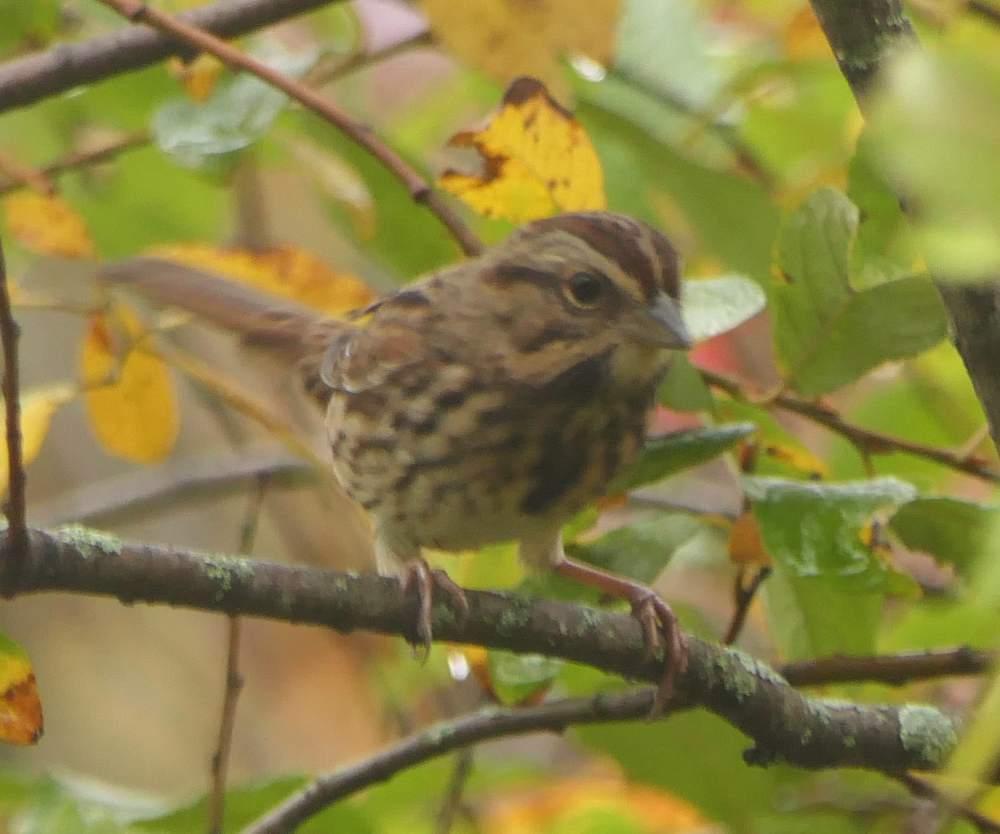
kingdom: Animalia
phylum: Chordata
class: Aves
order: Passeriformes
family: Passerellidae
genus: Melospiza
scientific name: Melospiza melodia
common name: Song sparrow
